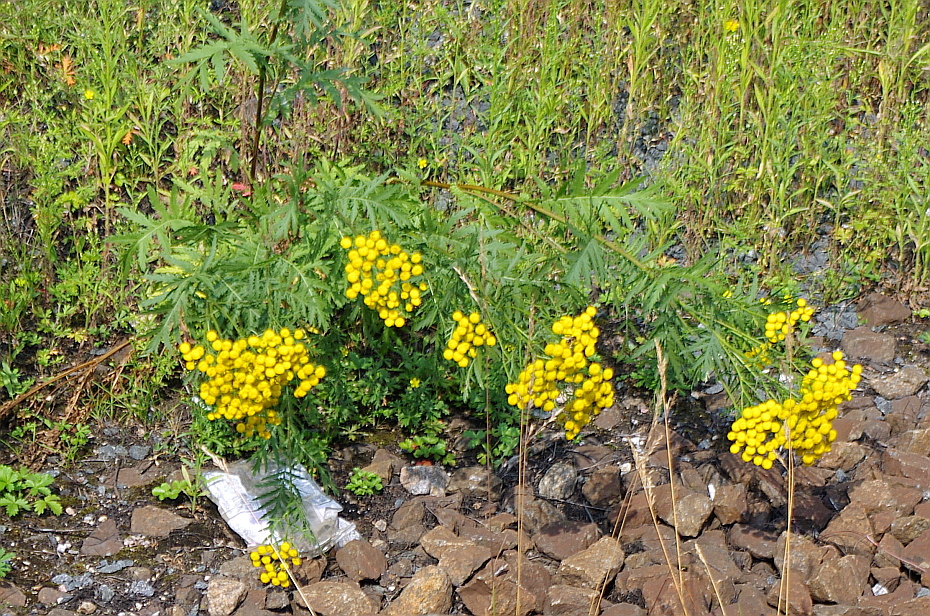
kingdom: Plantae
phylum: Tracheophyta
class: Magnoliopsida
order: Asterales
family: Asteraceae
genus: Tanacetum
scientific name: Tanacetum vulgare
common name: Common tansy
